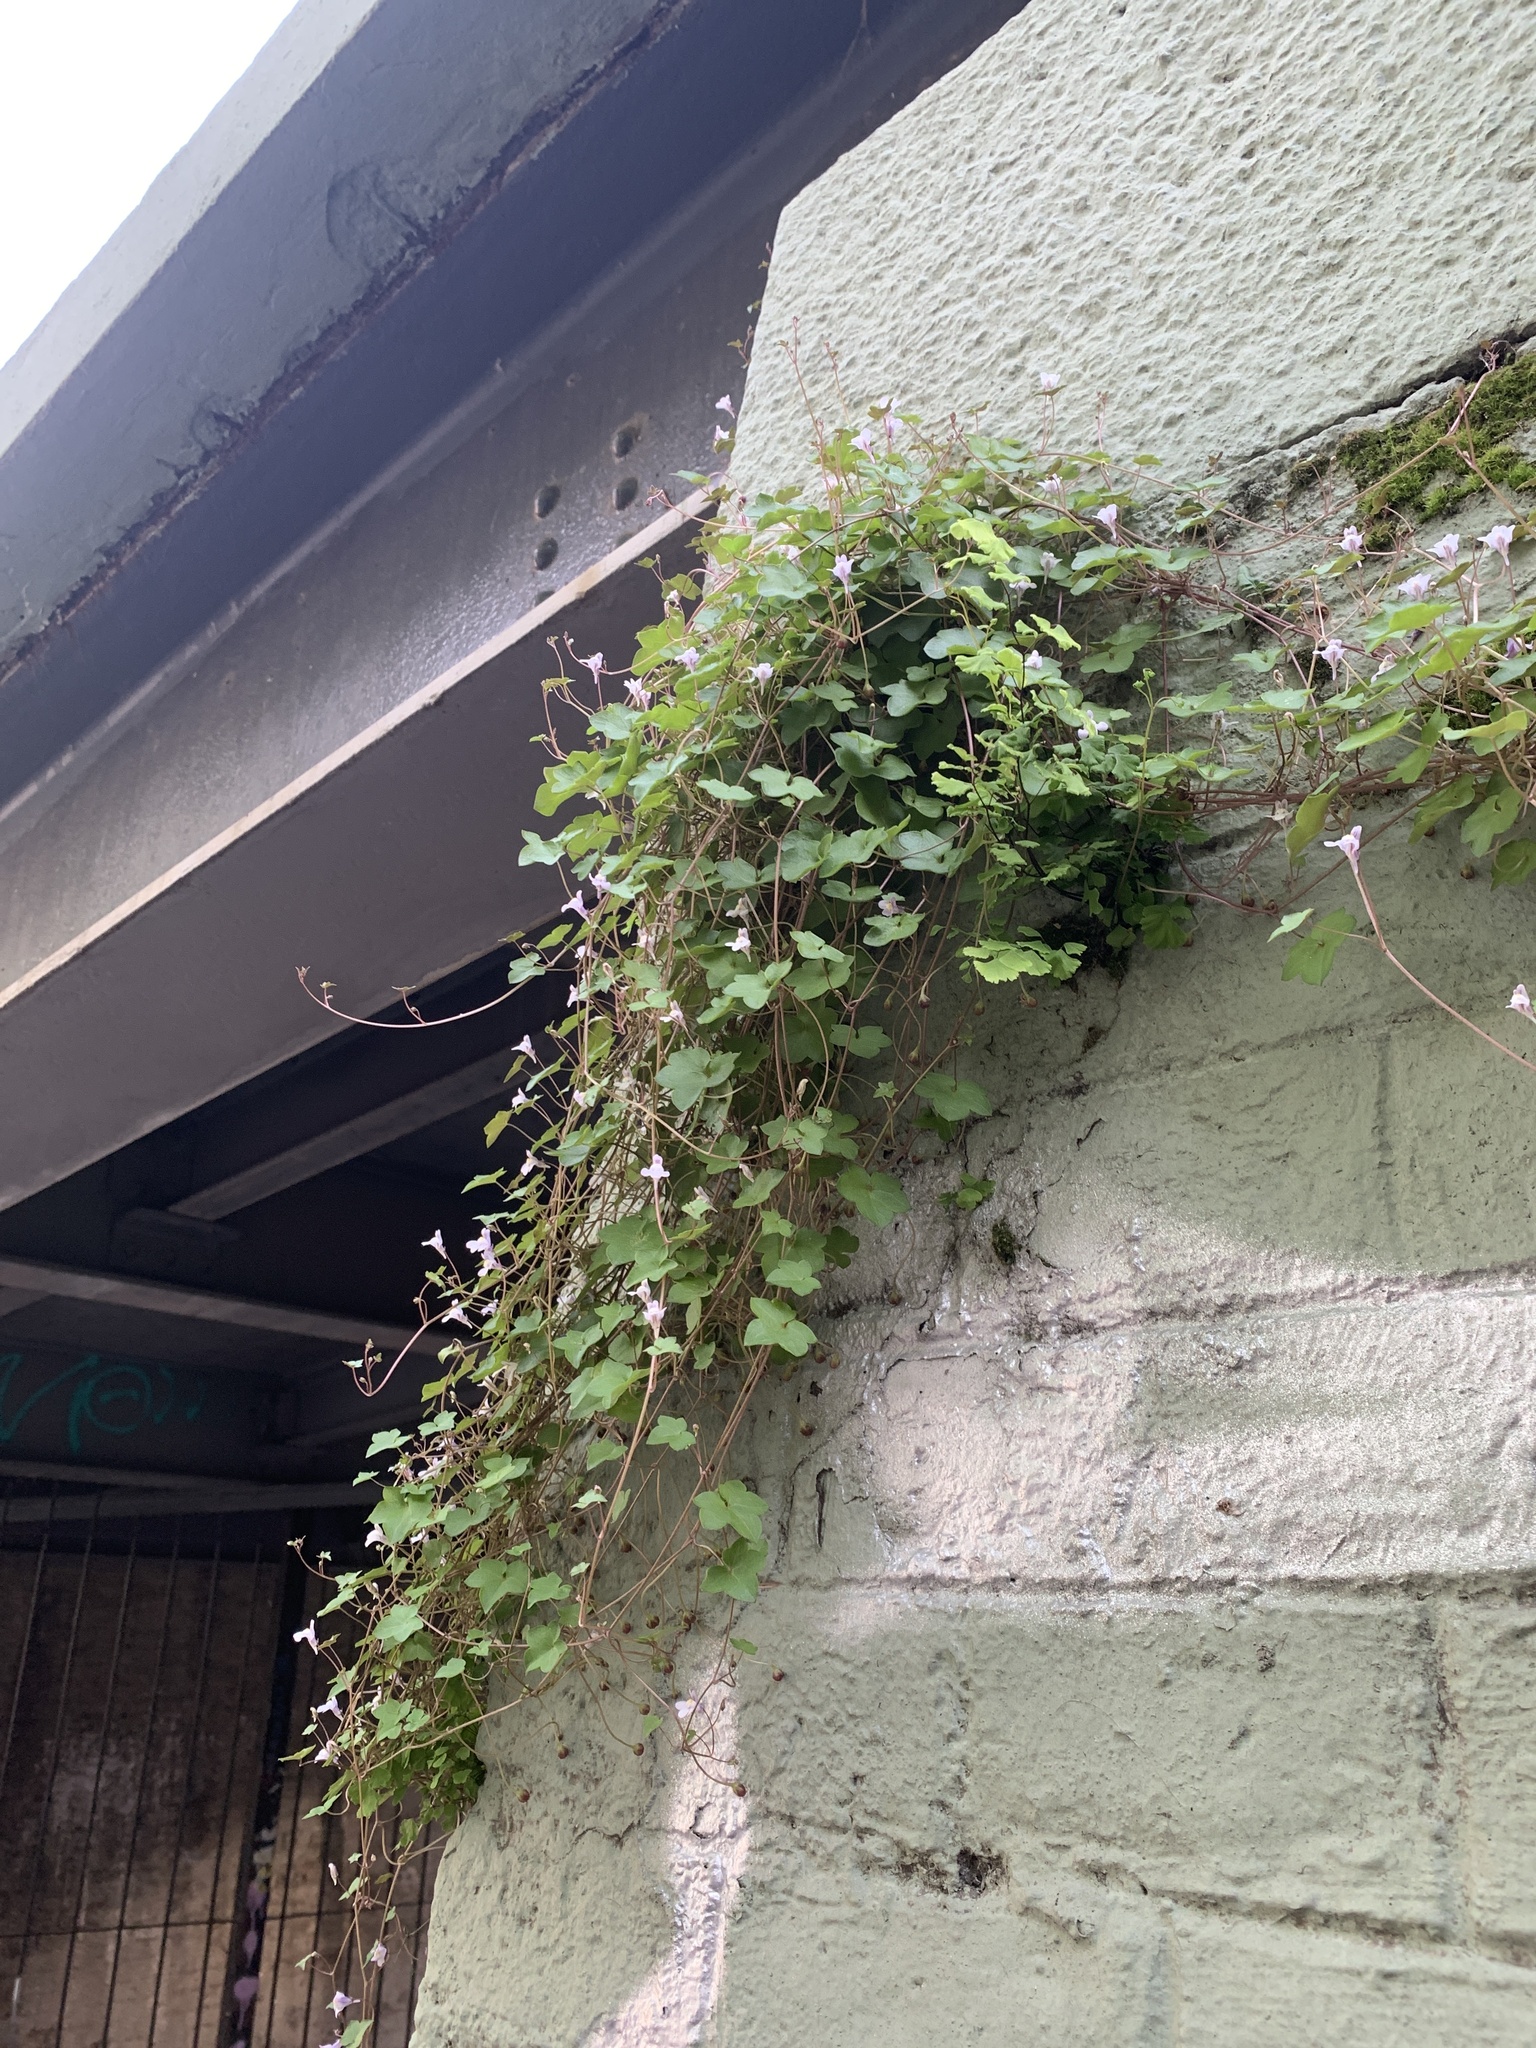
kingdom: Plantae
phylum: Tracheophyta
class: Magnoliopsida
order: Lamiales
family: Plantaginaceae
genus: Cymbalaria
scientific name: Cymbalaria muralis
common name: Ivy-leaved toadflax
